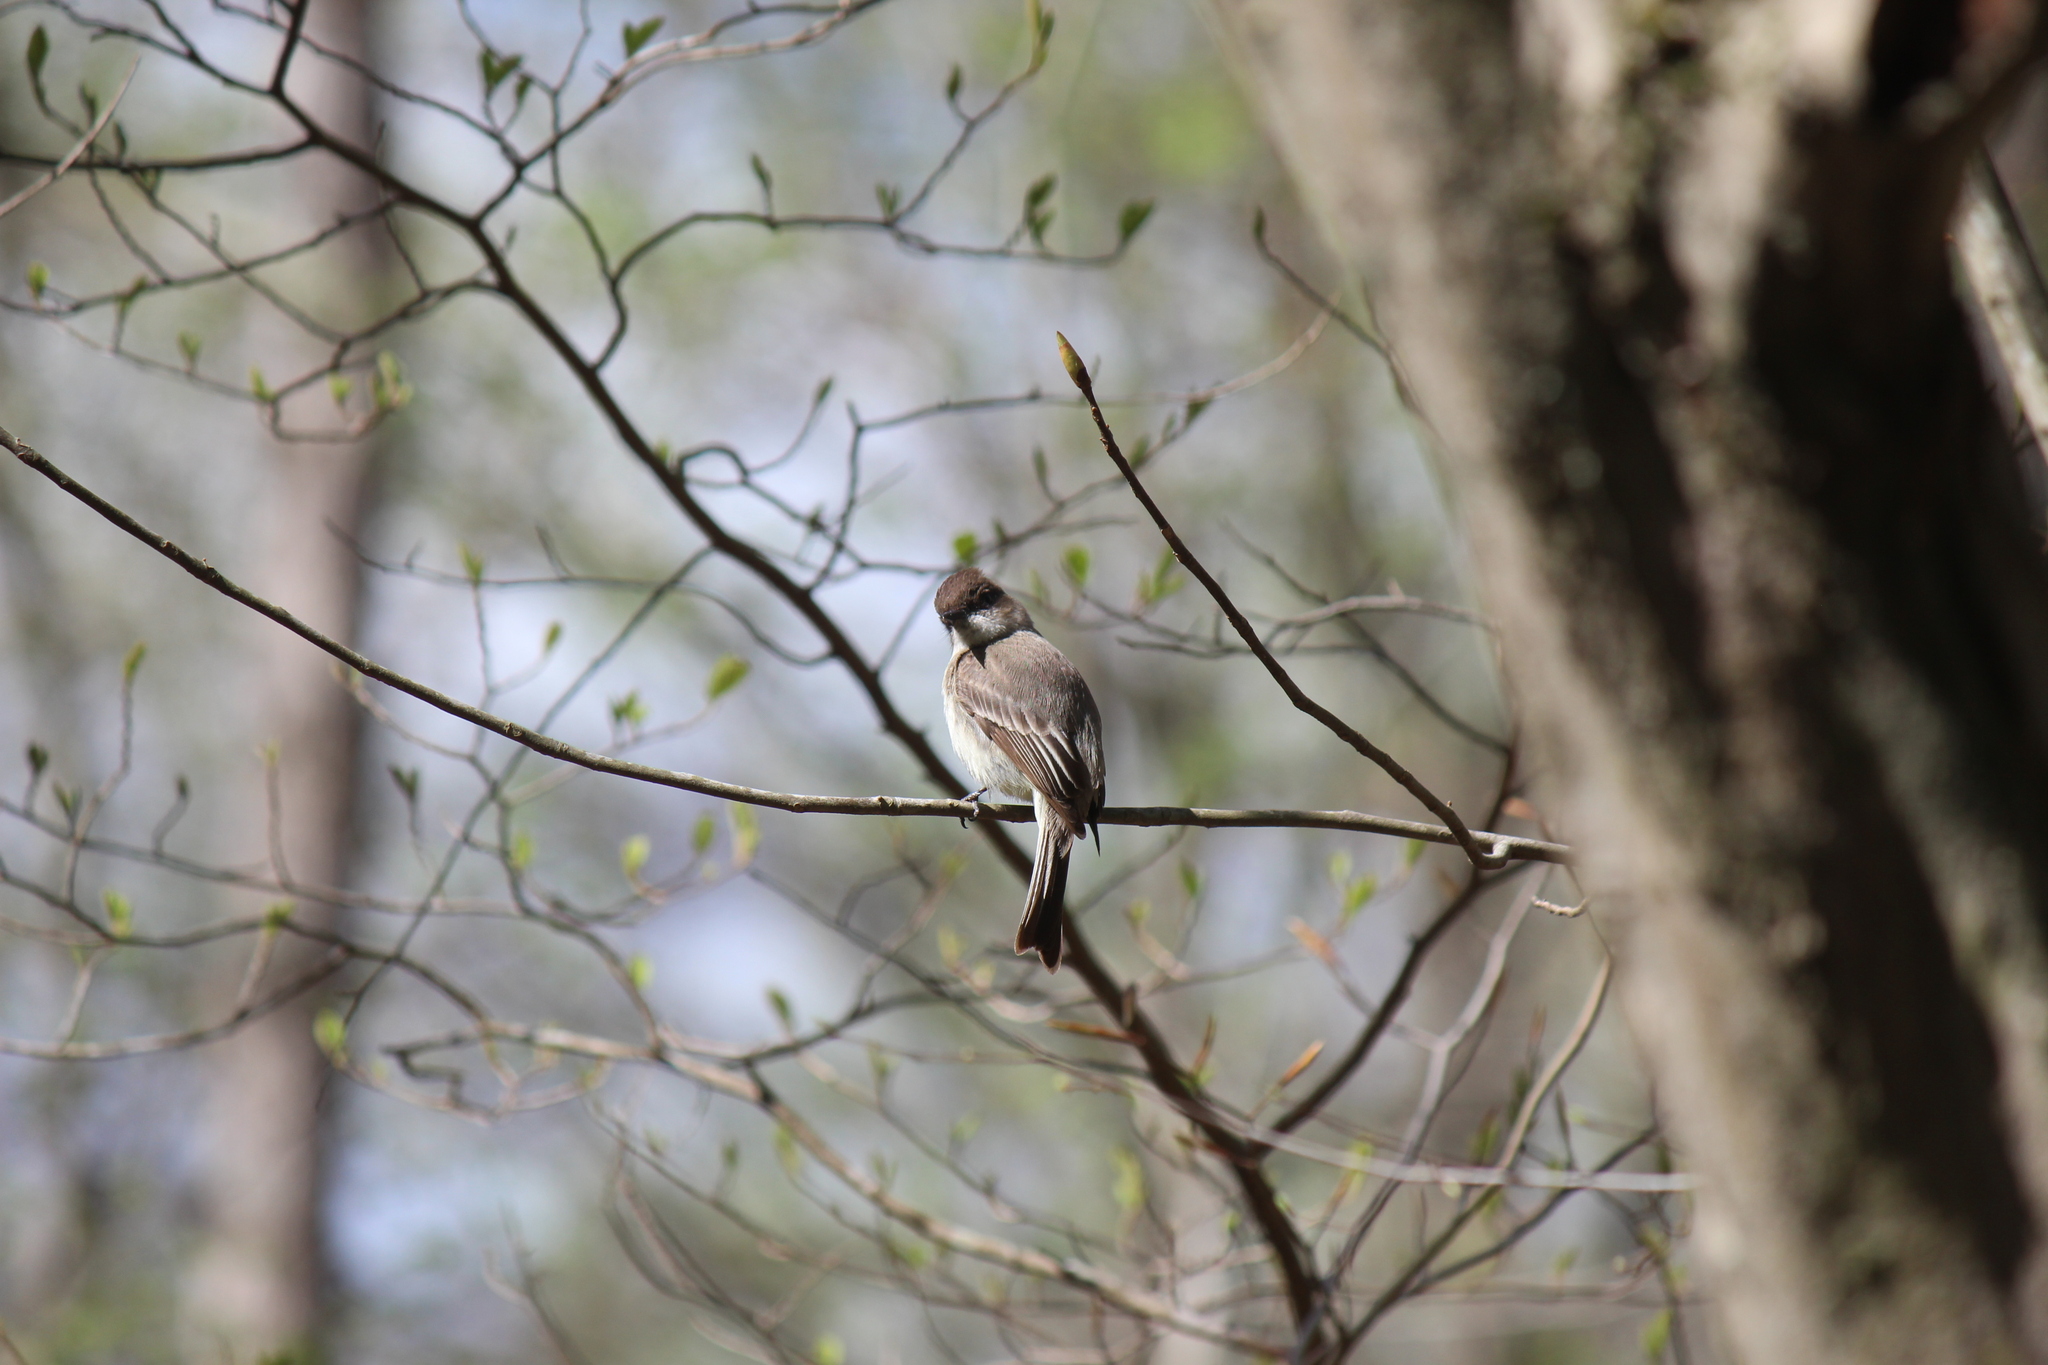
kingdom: Animalia
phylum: Chordata
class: Aves
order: Passeriformes
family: Tyrannidae
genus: Sayornis
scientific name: Sayornis phoebe
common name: Eastern phoebe
